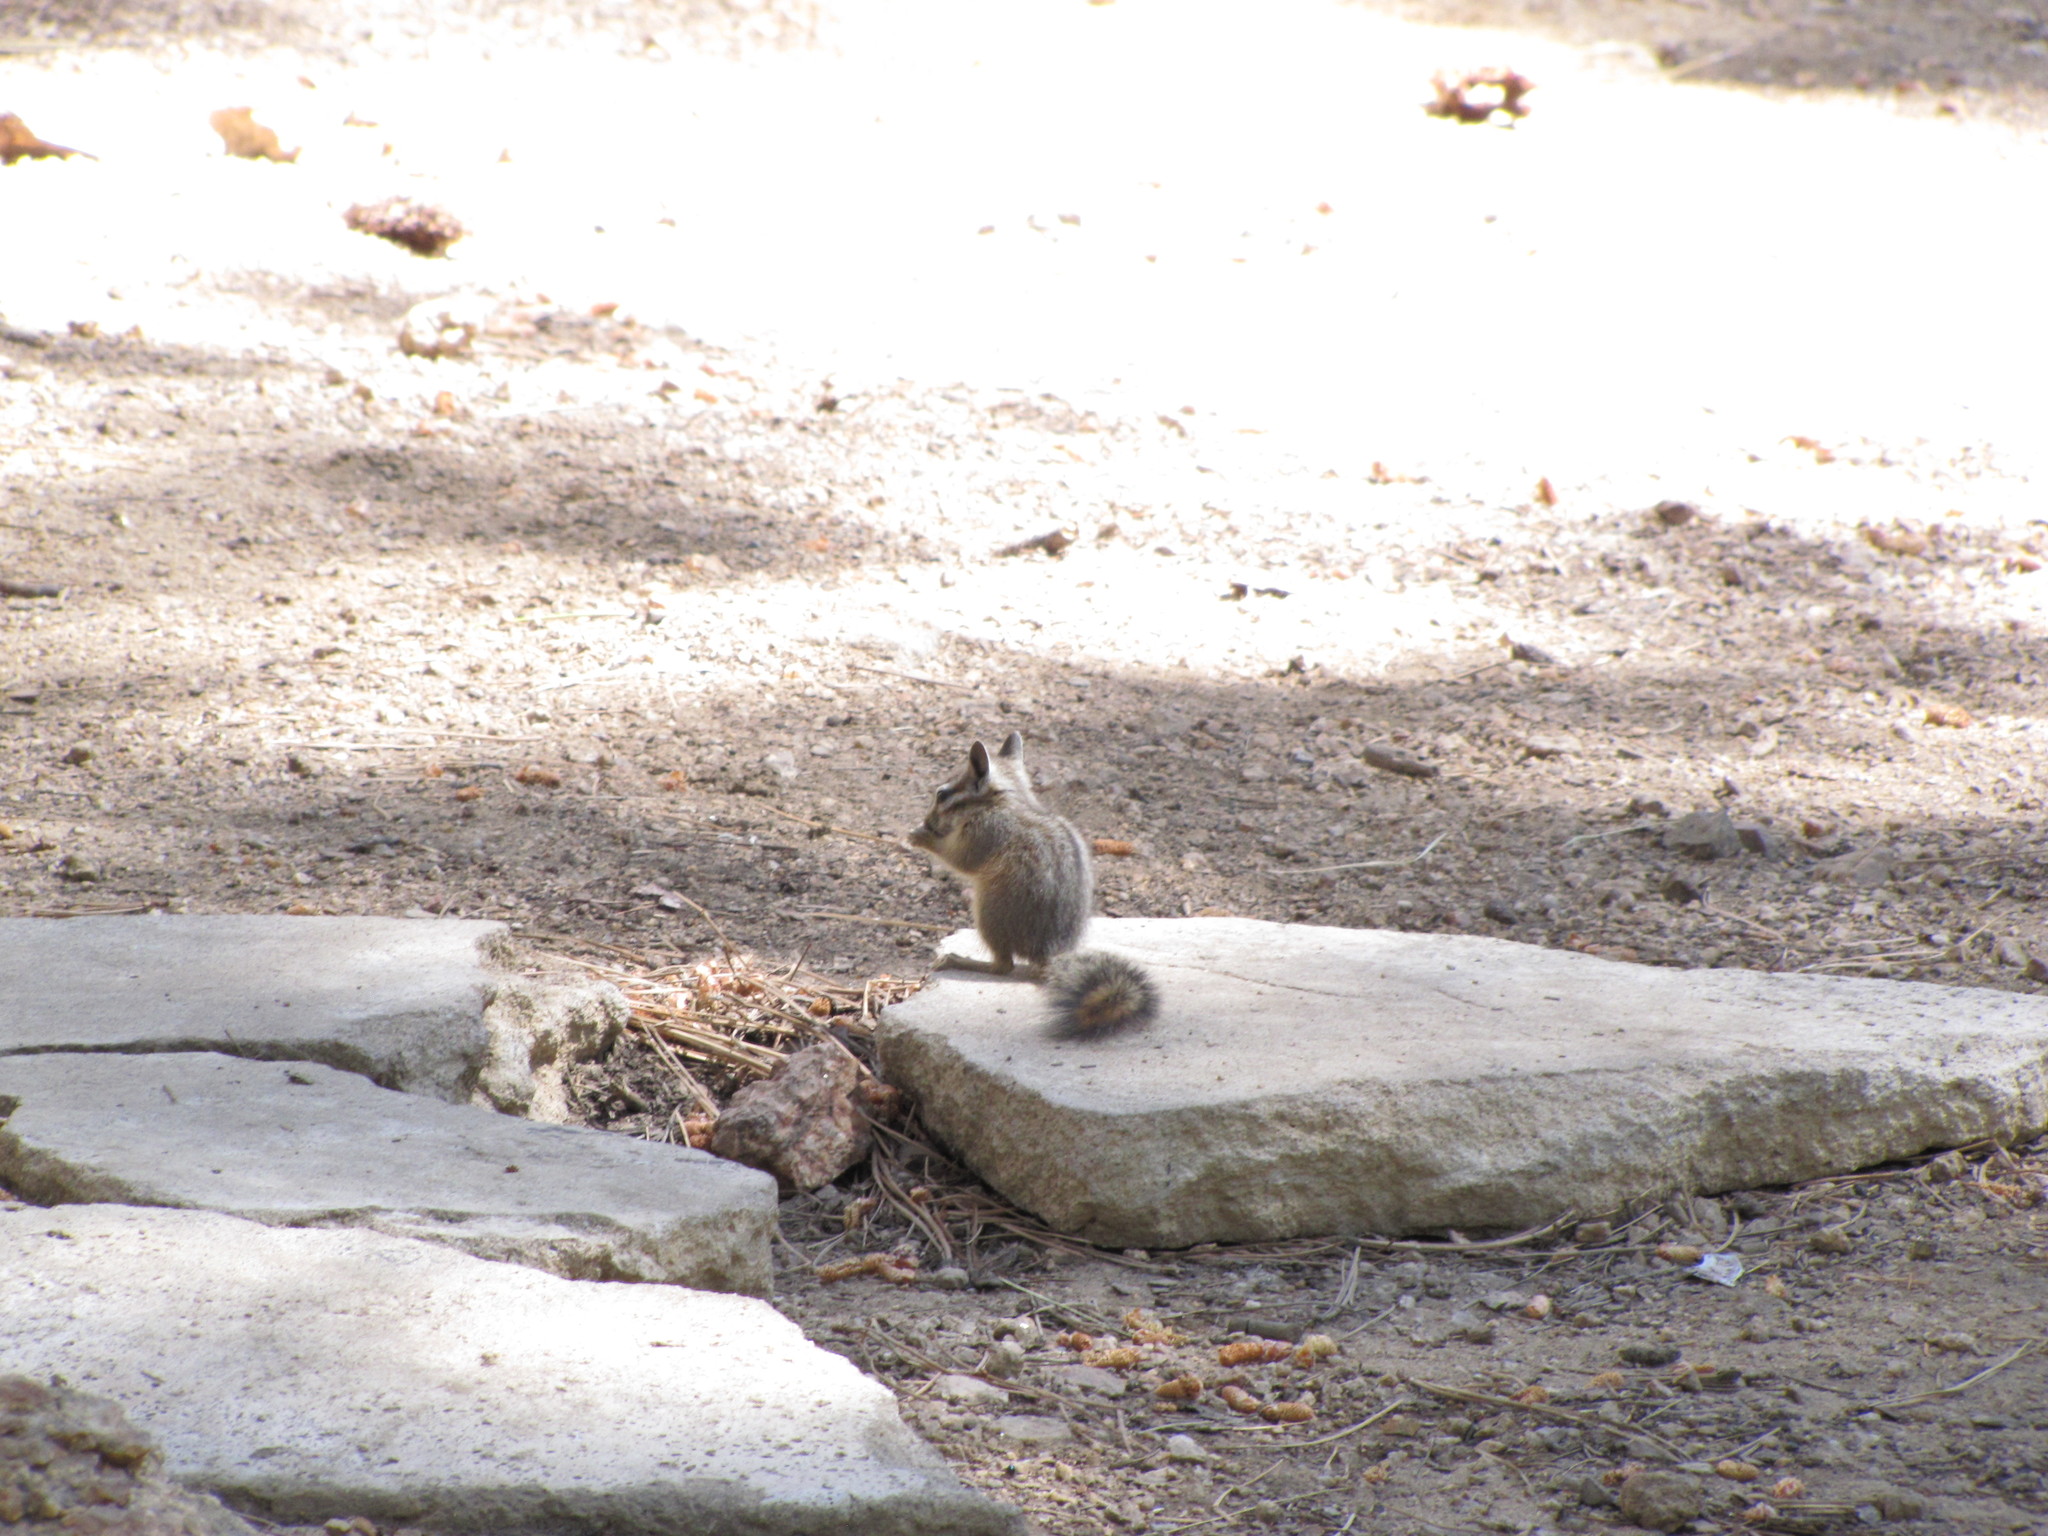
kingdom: Animalia
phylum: Chordata
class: Mammalia
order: Rodentia
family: Sciuridae
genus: Tamias
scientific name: Tamias dorsalis
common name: Cliff chipmunk
